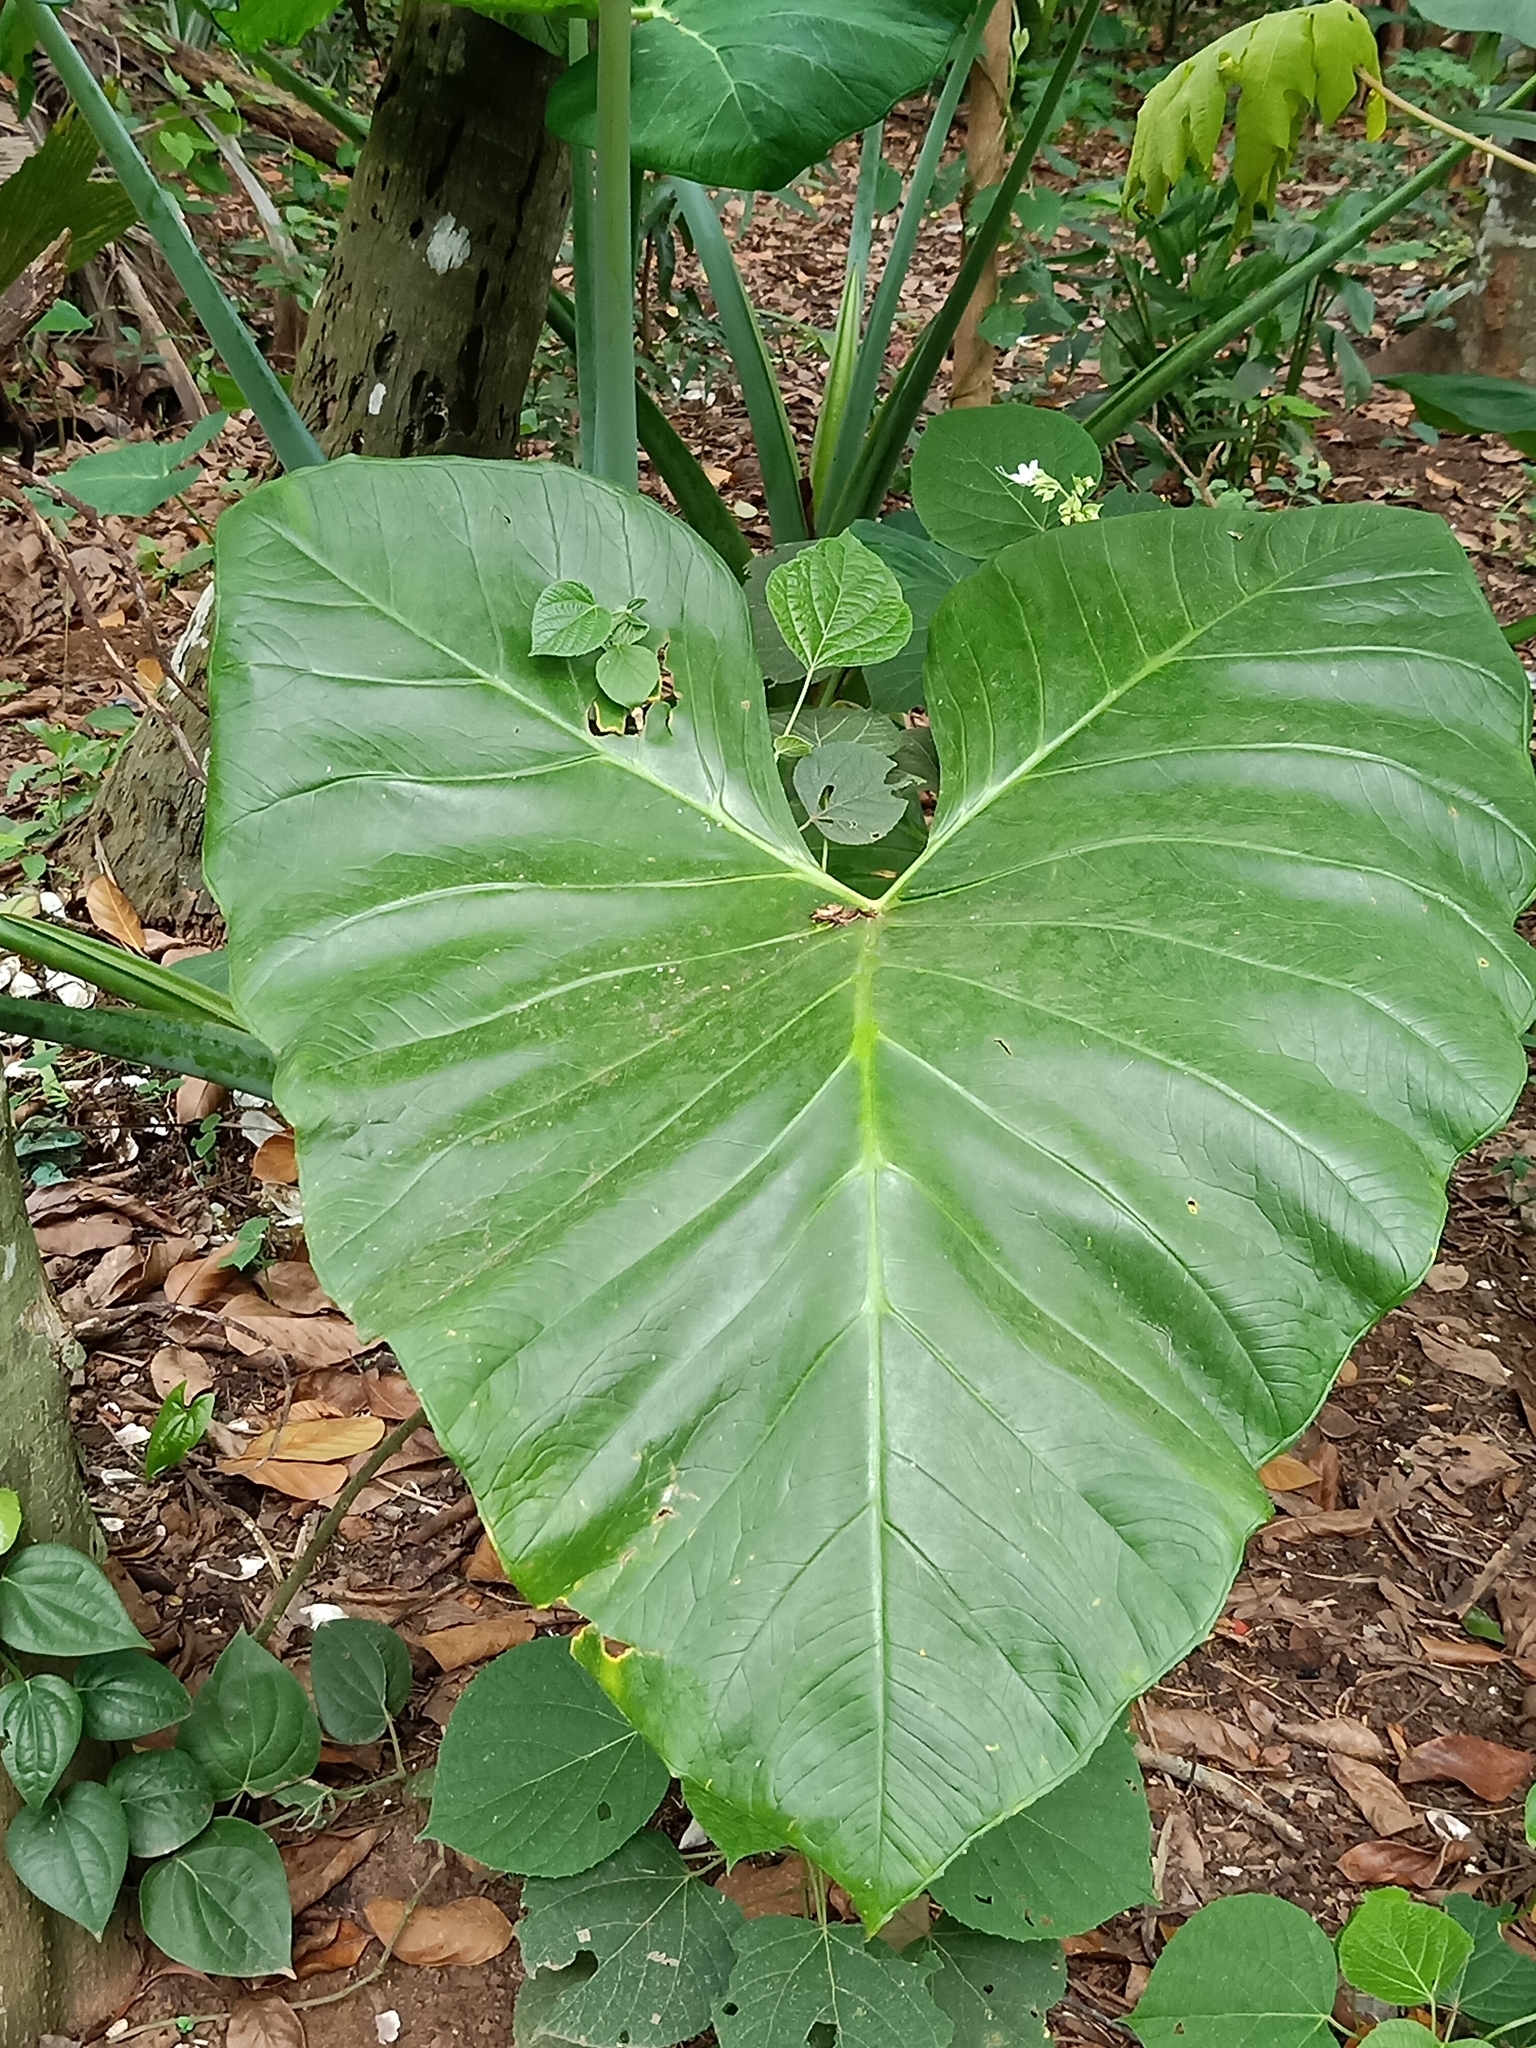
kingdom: Plantae
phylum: Tracheophyta
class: Liliopsida
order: Alismatales
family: Araceae
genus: Xanthosoma
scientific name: Xanthosoma robustum
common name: Capote
